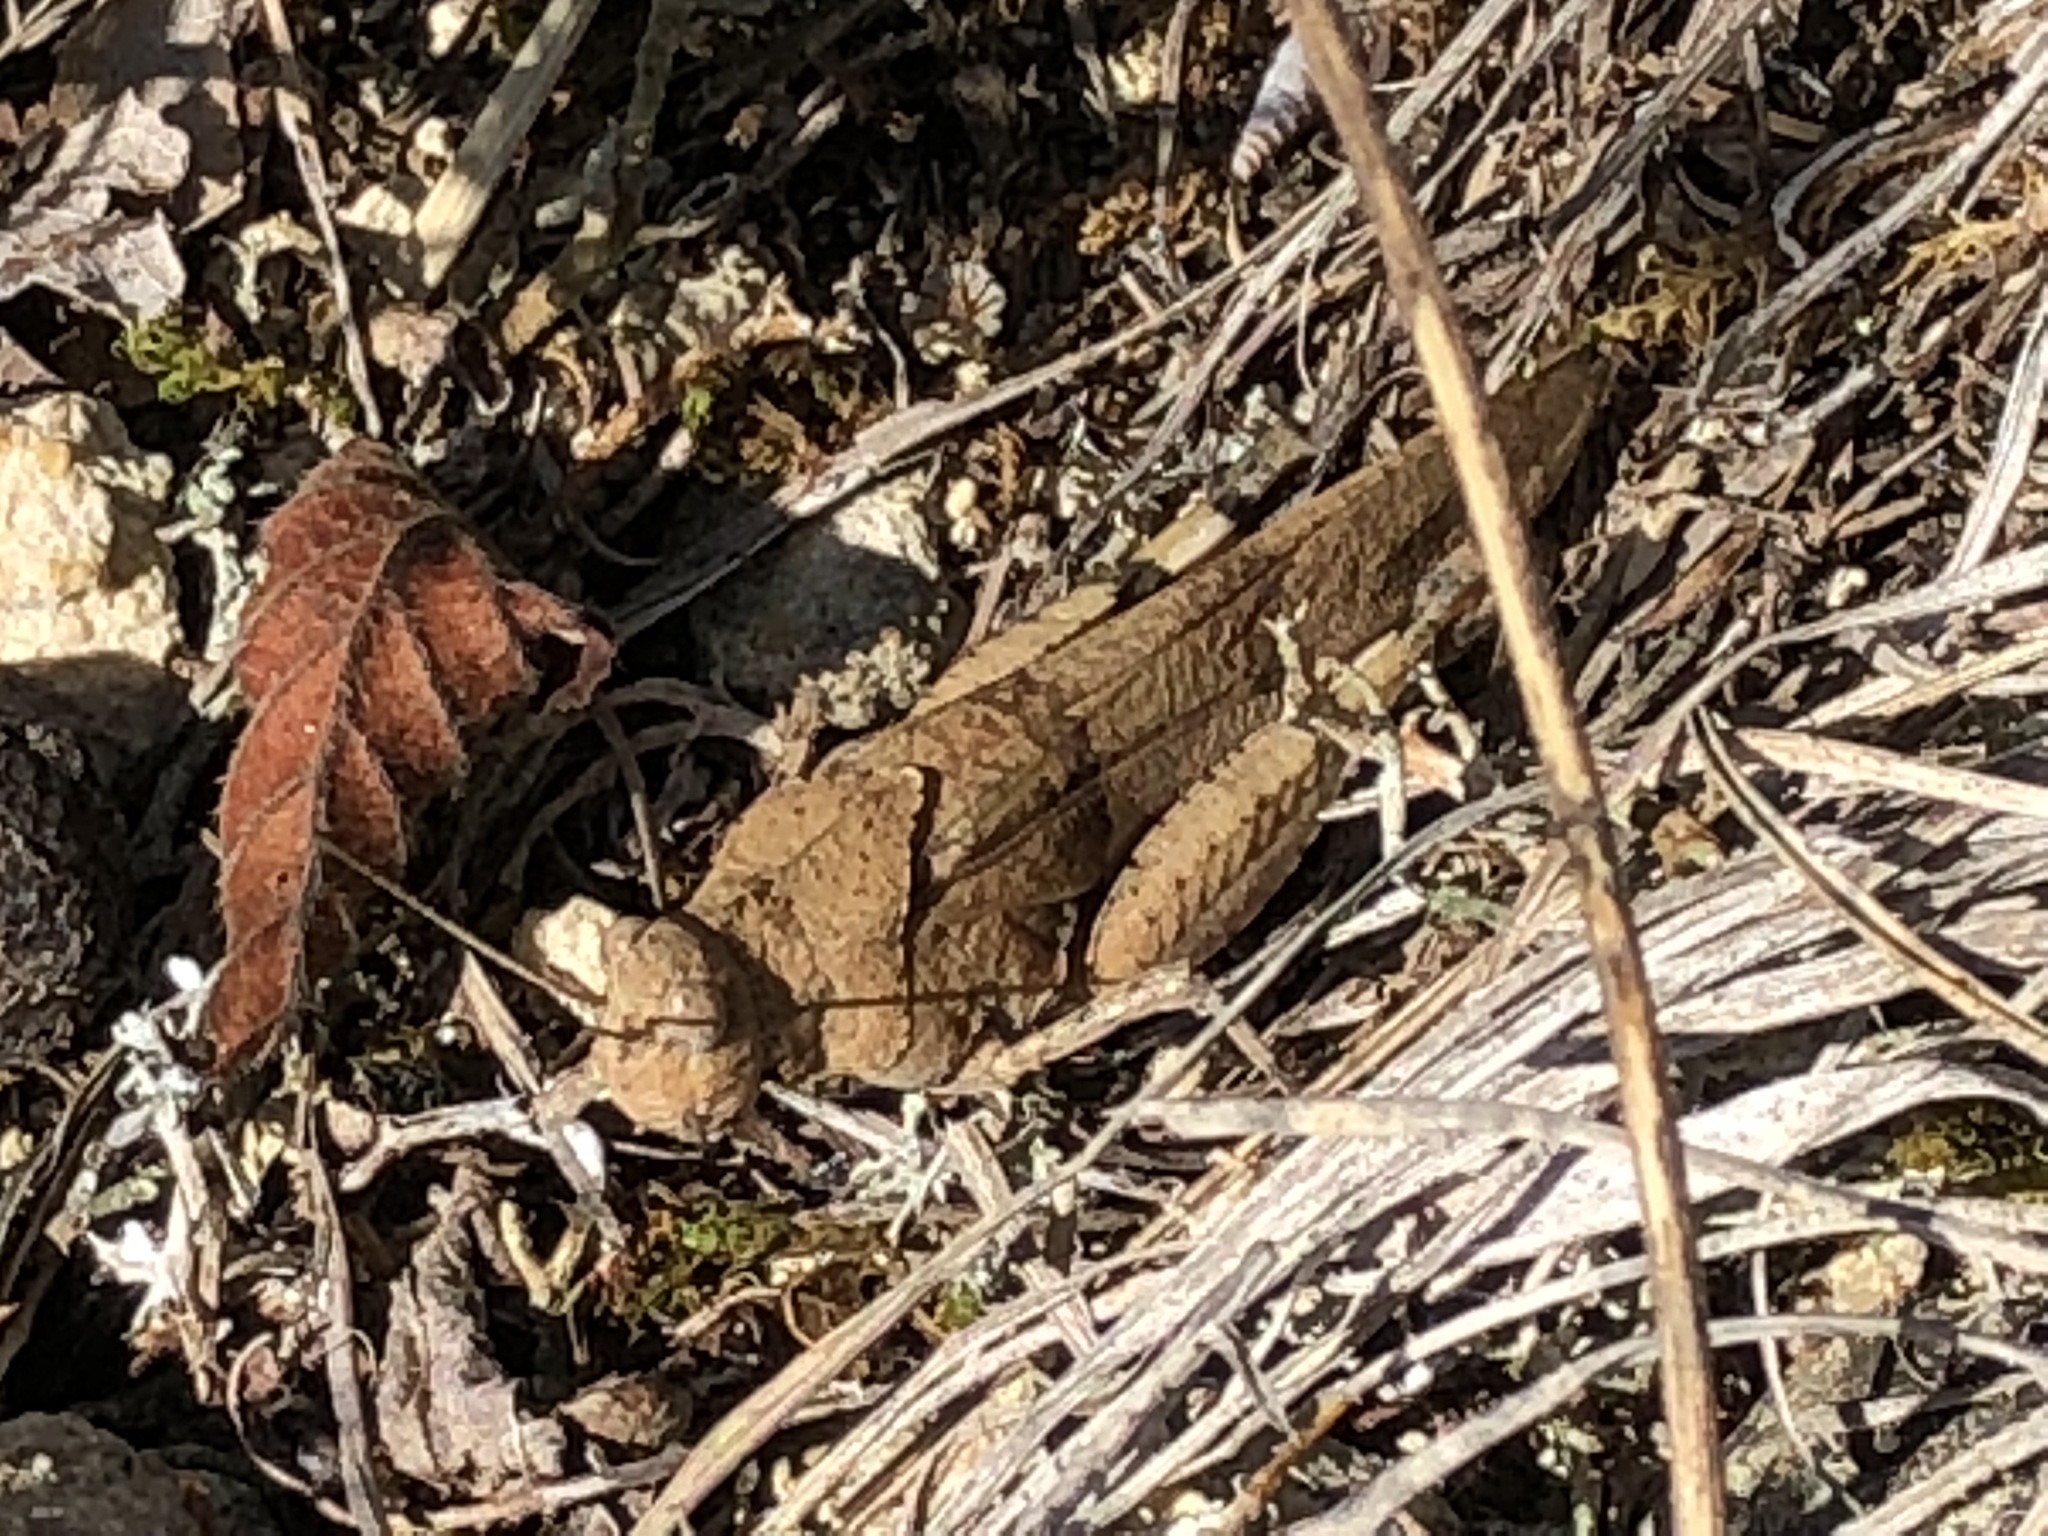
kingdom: Animalia
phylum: Arthropoda
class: Insecta
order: Orthoptera
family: Acrididae
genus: Oedipoda
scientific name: Oedipoda caerulescens
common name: Blue-winged grasshopper
